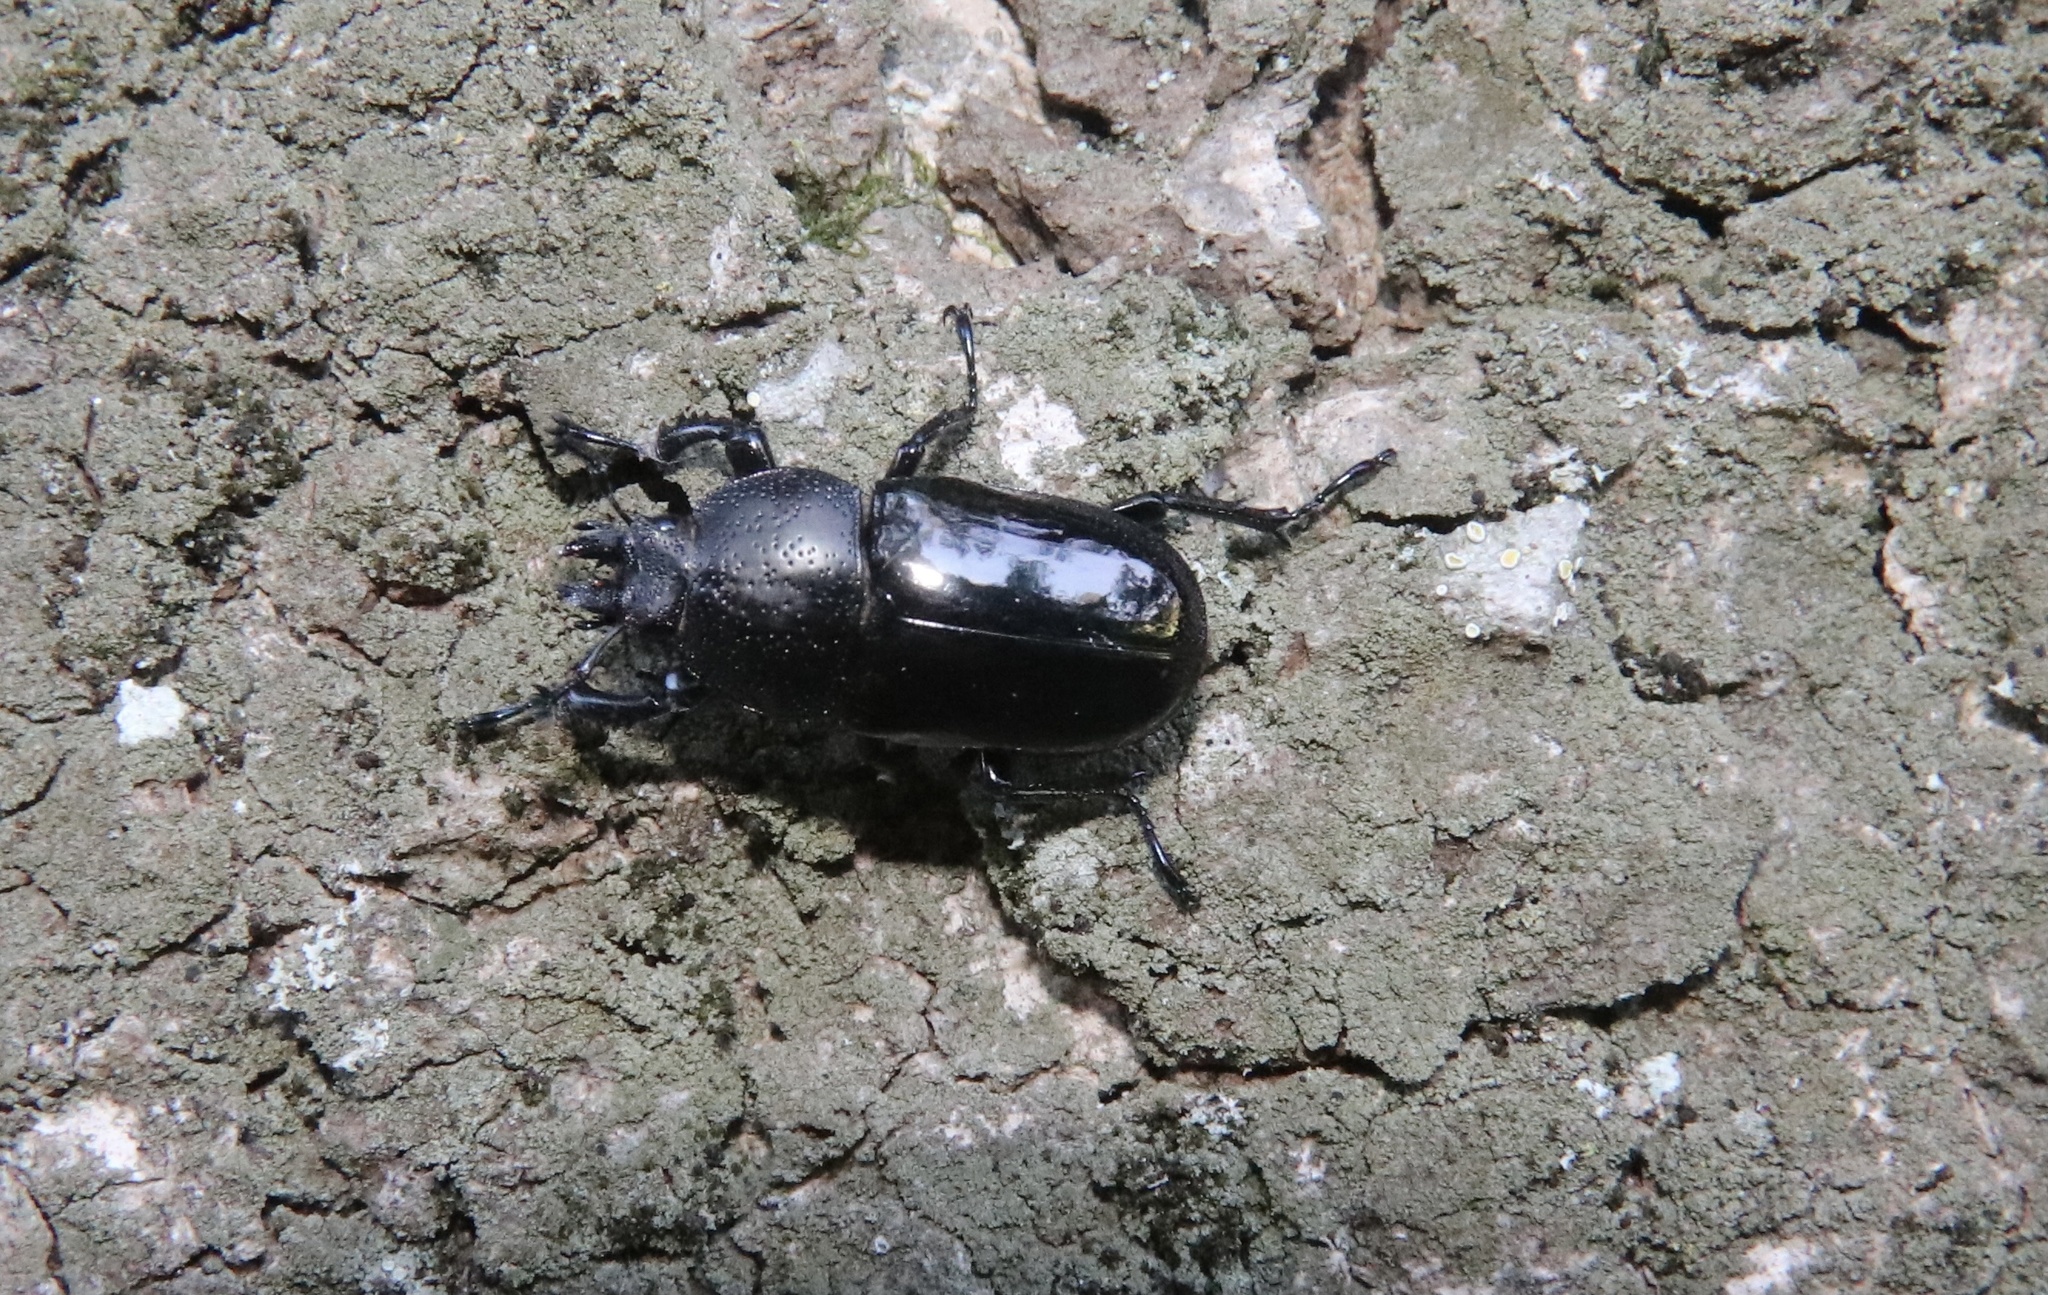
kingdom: Animalia
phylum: Arthropoda
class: Insecta
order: Coleoptera
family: Lucanidae
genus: Streptocerus
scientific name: Streptocerus speciosus
